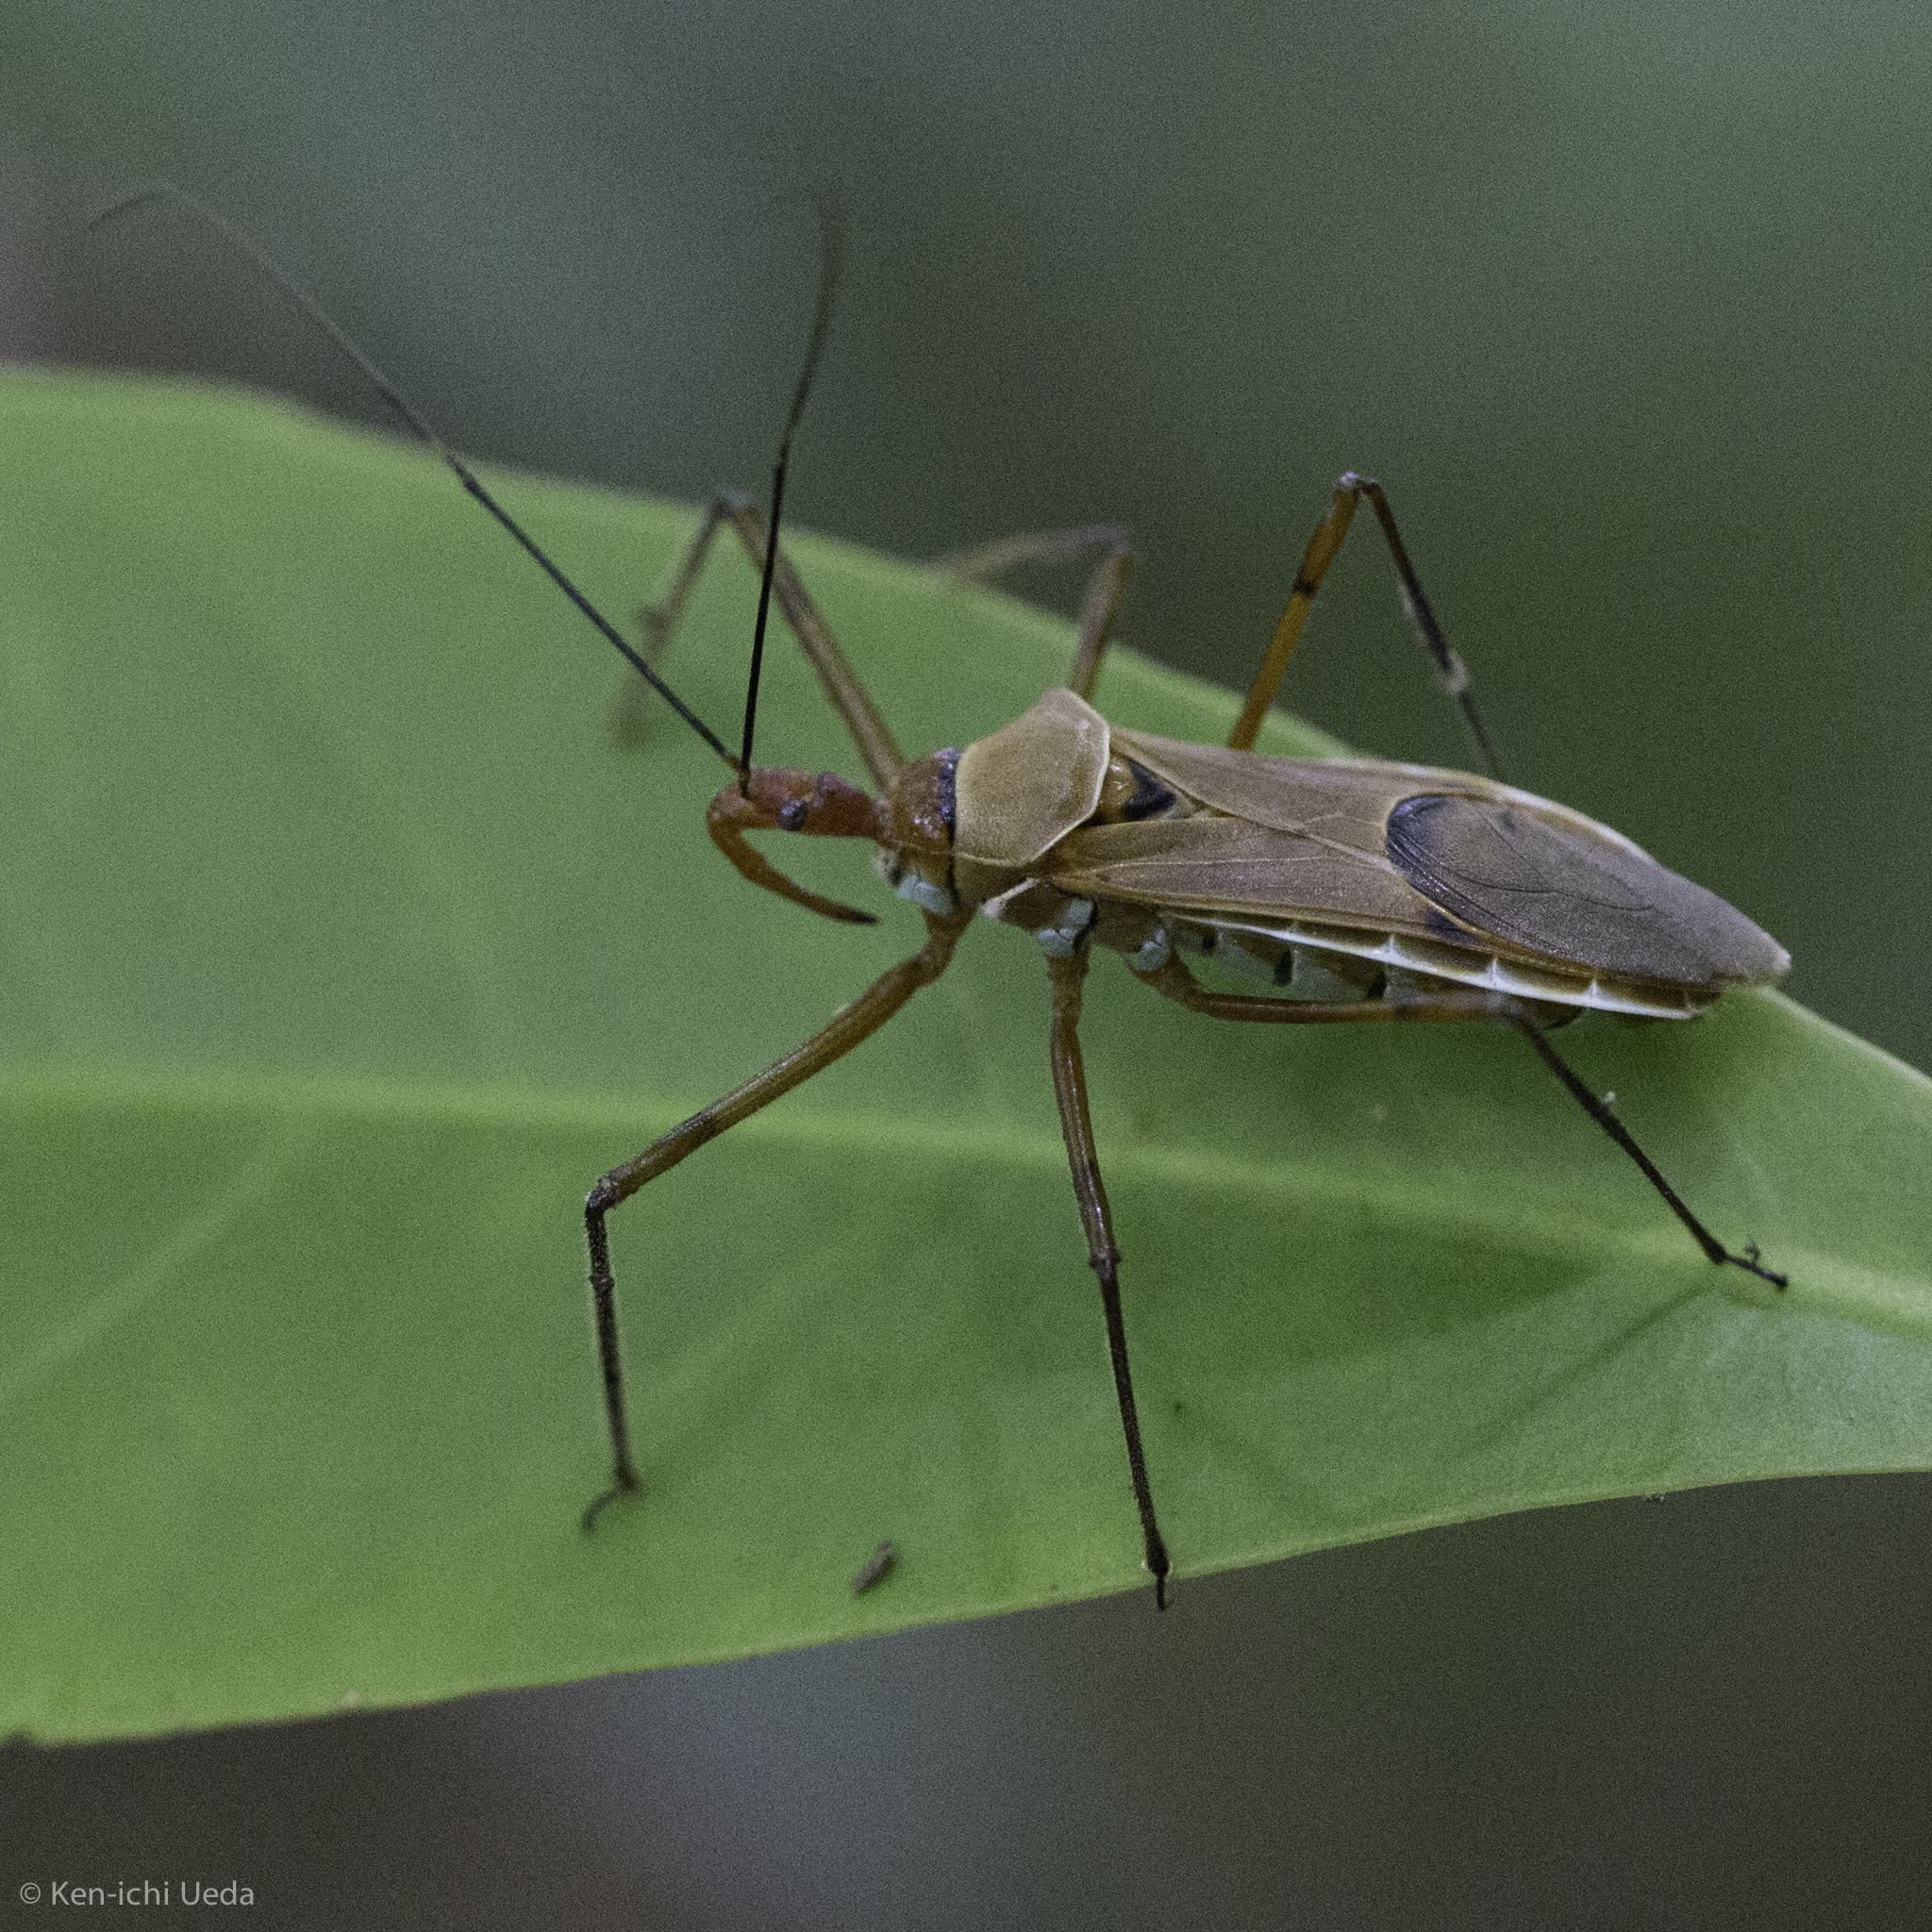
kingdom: Animalia
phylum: Arthropoda
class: Insecta
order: Hemiptera
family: Reduviidae
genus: Zelus
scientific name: Zelus ruficeps
